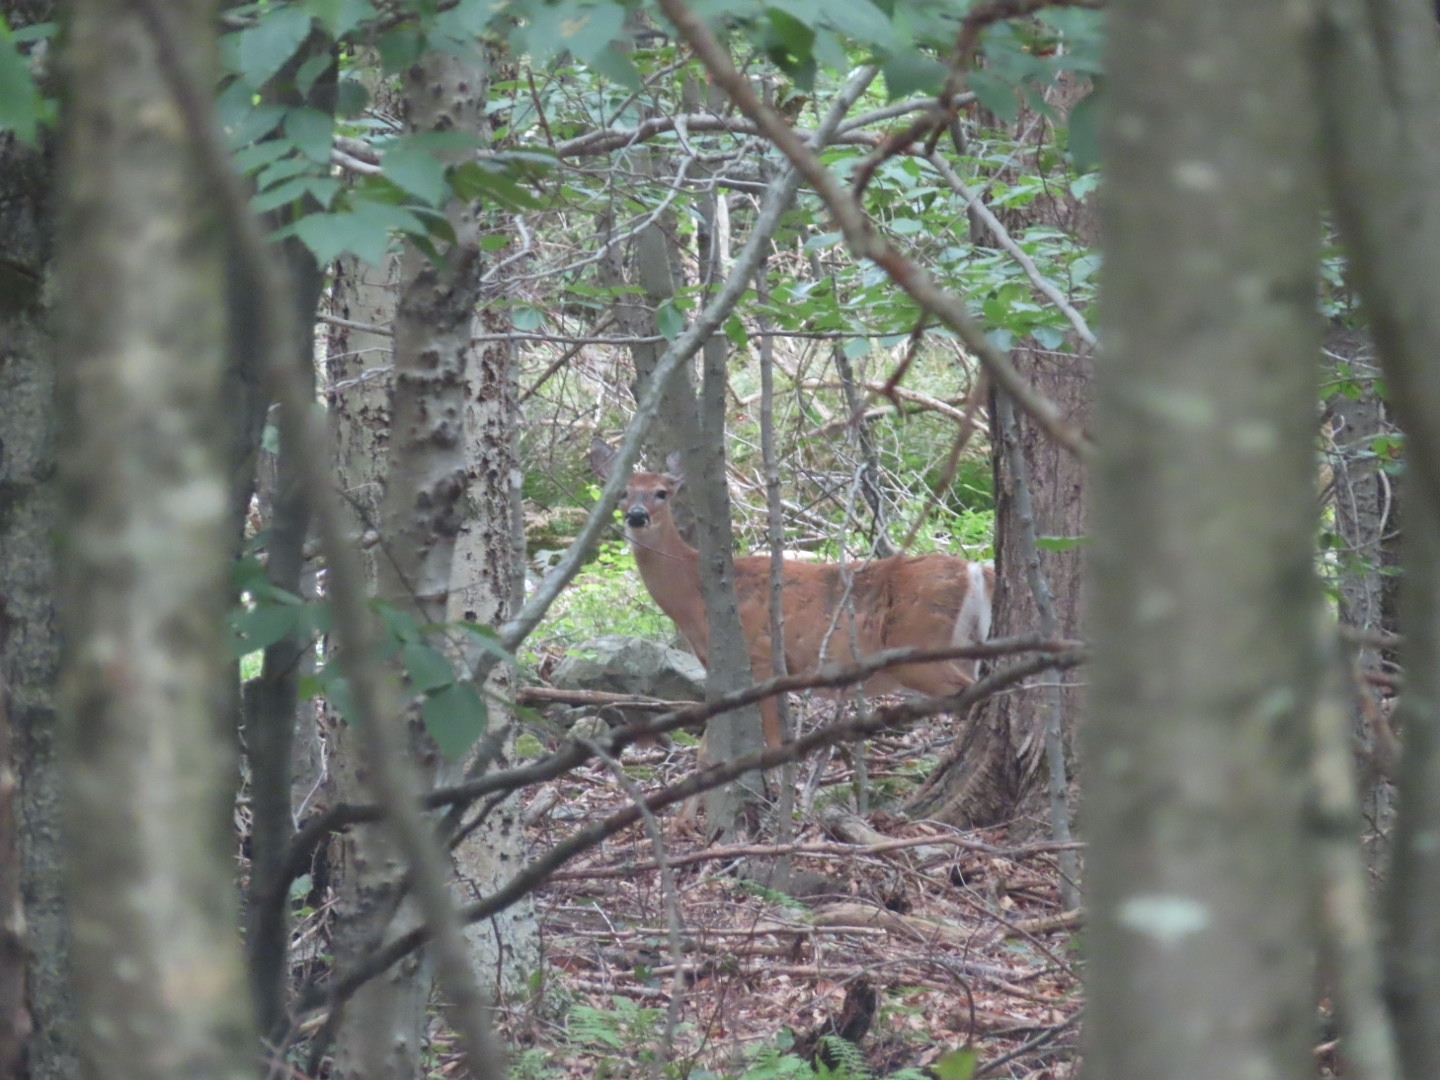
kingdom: Animalia
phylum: Chordata
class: Mammalia
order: Artiodactyla
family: Cervidae
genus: Odocoileus
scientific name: Odocoileus virginianus
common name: White-tailed deer
